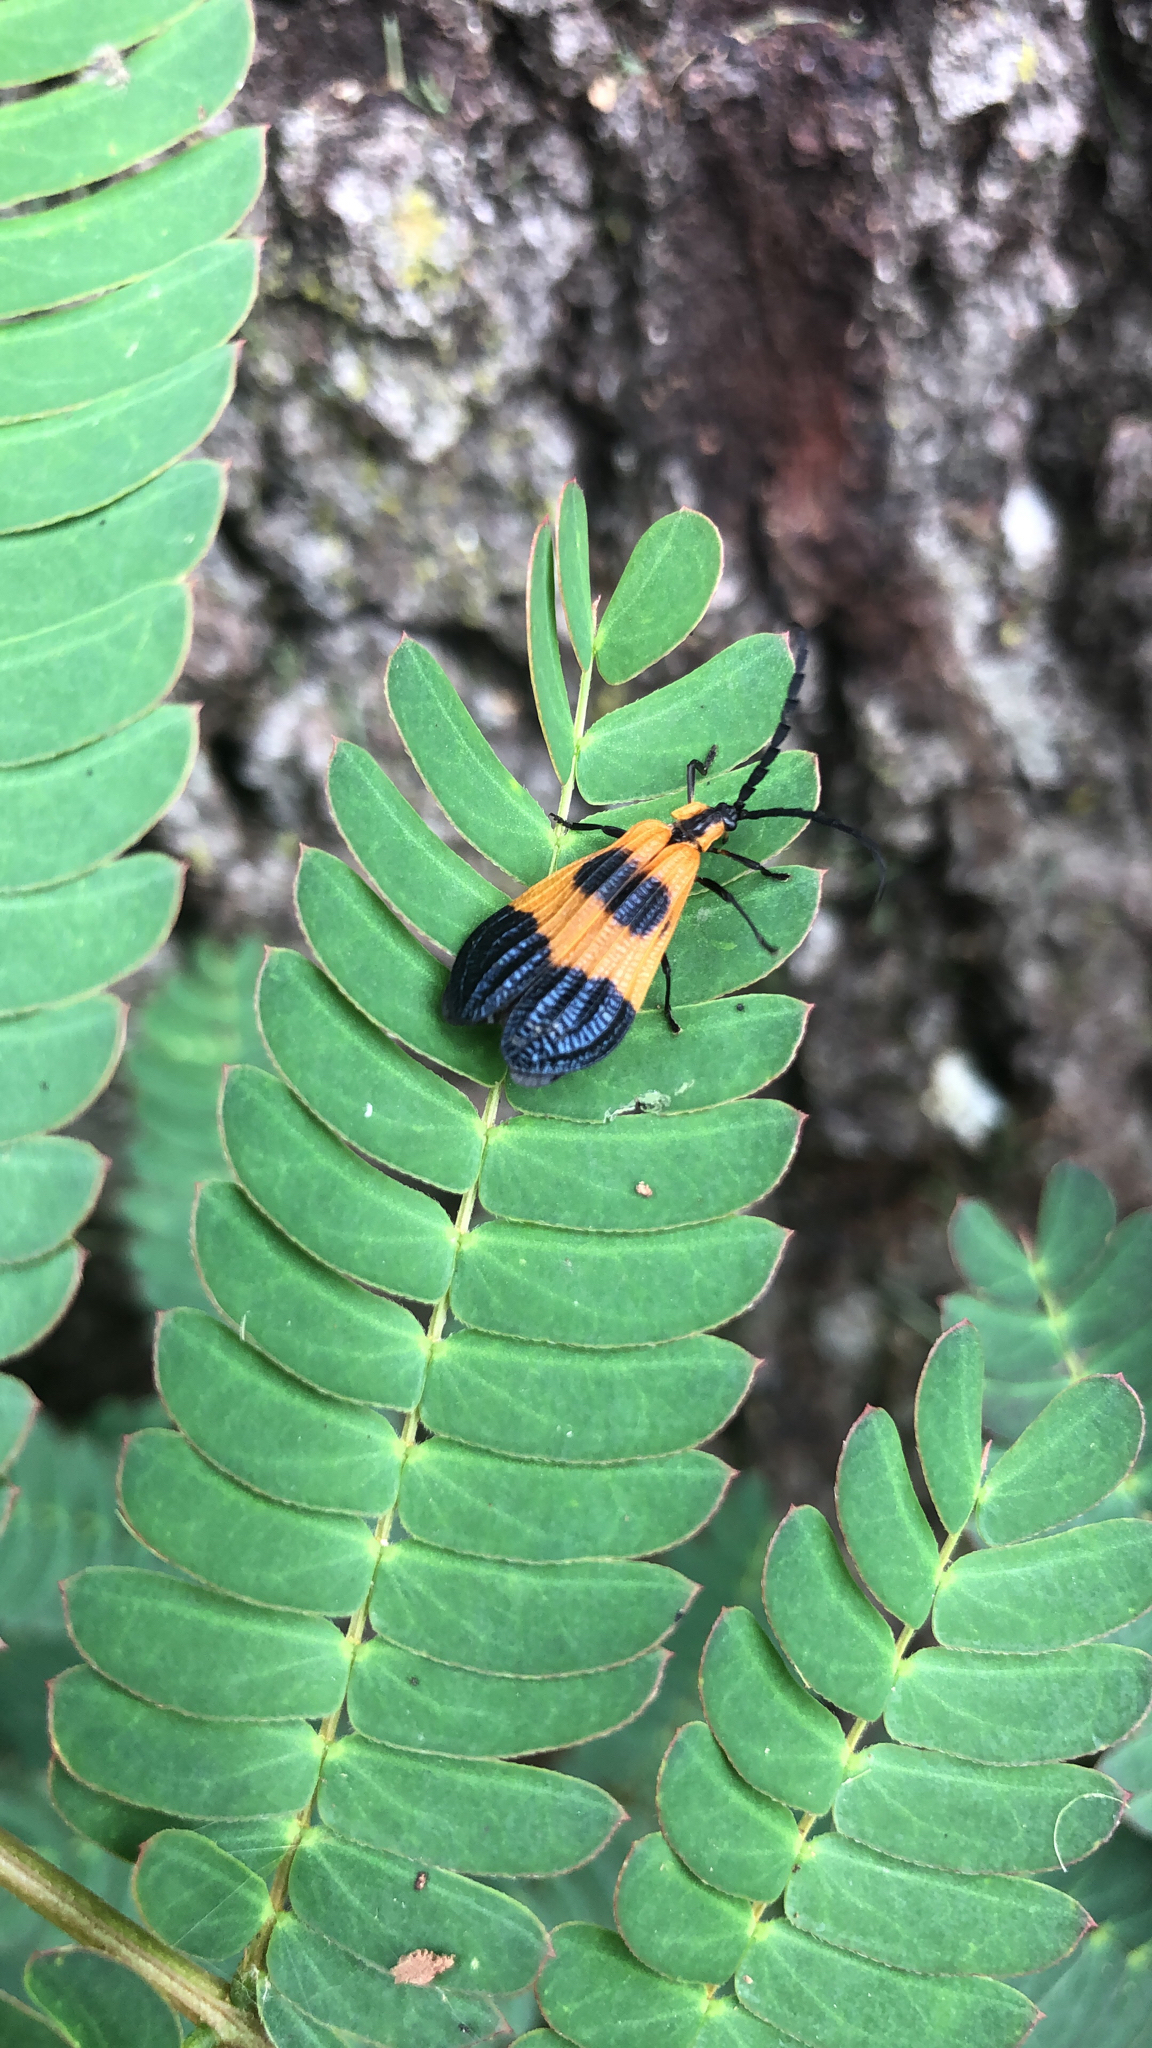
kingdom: Animalia
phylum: Arthropoda
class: Insecta
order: Coleoptera
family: Lycidae
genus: Calopteron
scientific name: Calopteron terminale
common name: End band net-winged beetle
